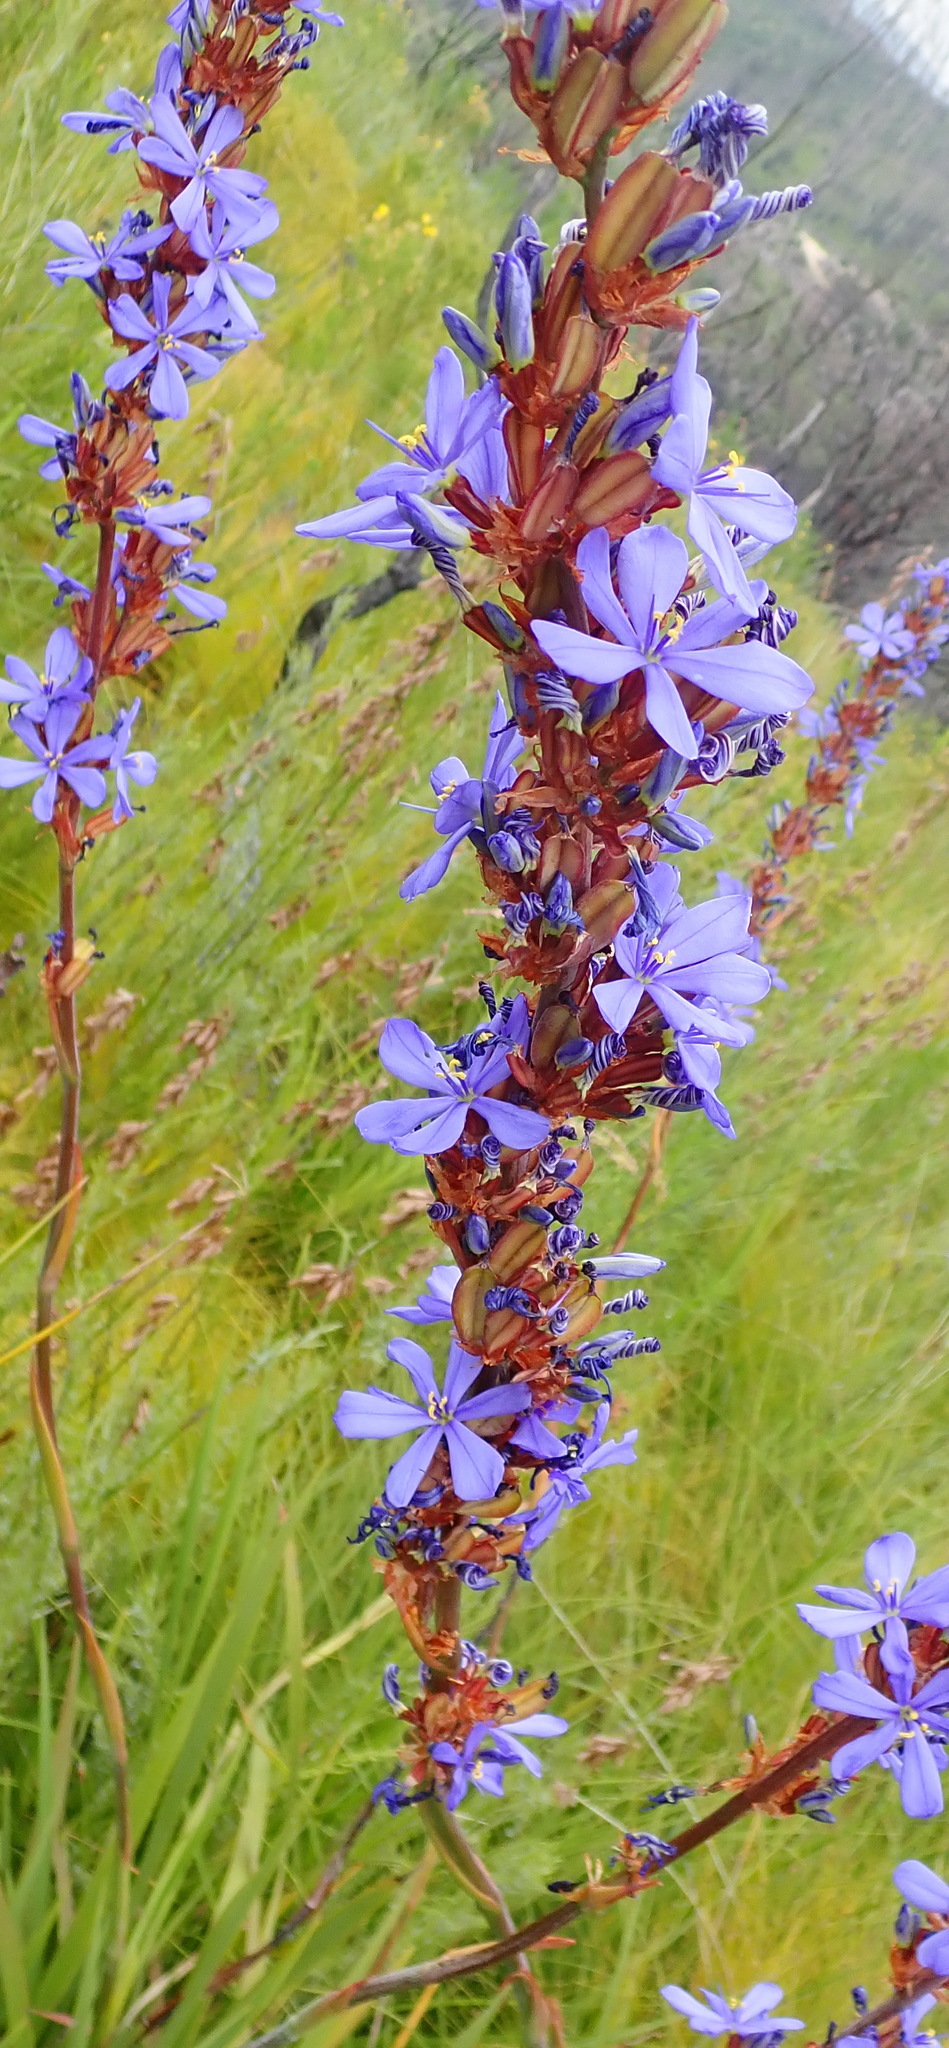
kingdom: Plantae
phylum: Tracheophyta
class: Liliopsida
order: Asparagales
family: Iridaceae
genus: Aristea
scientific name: Aristea bakeri
